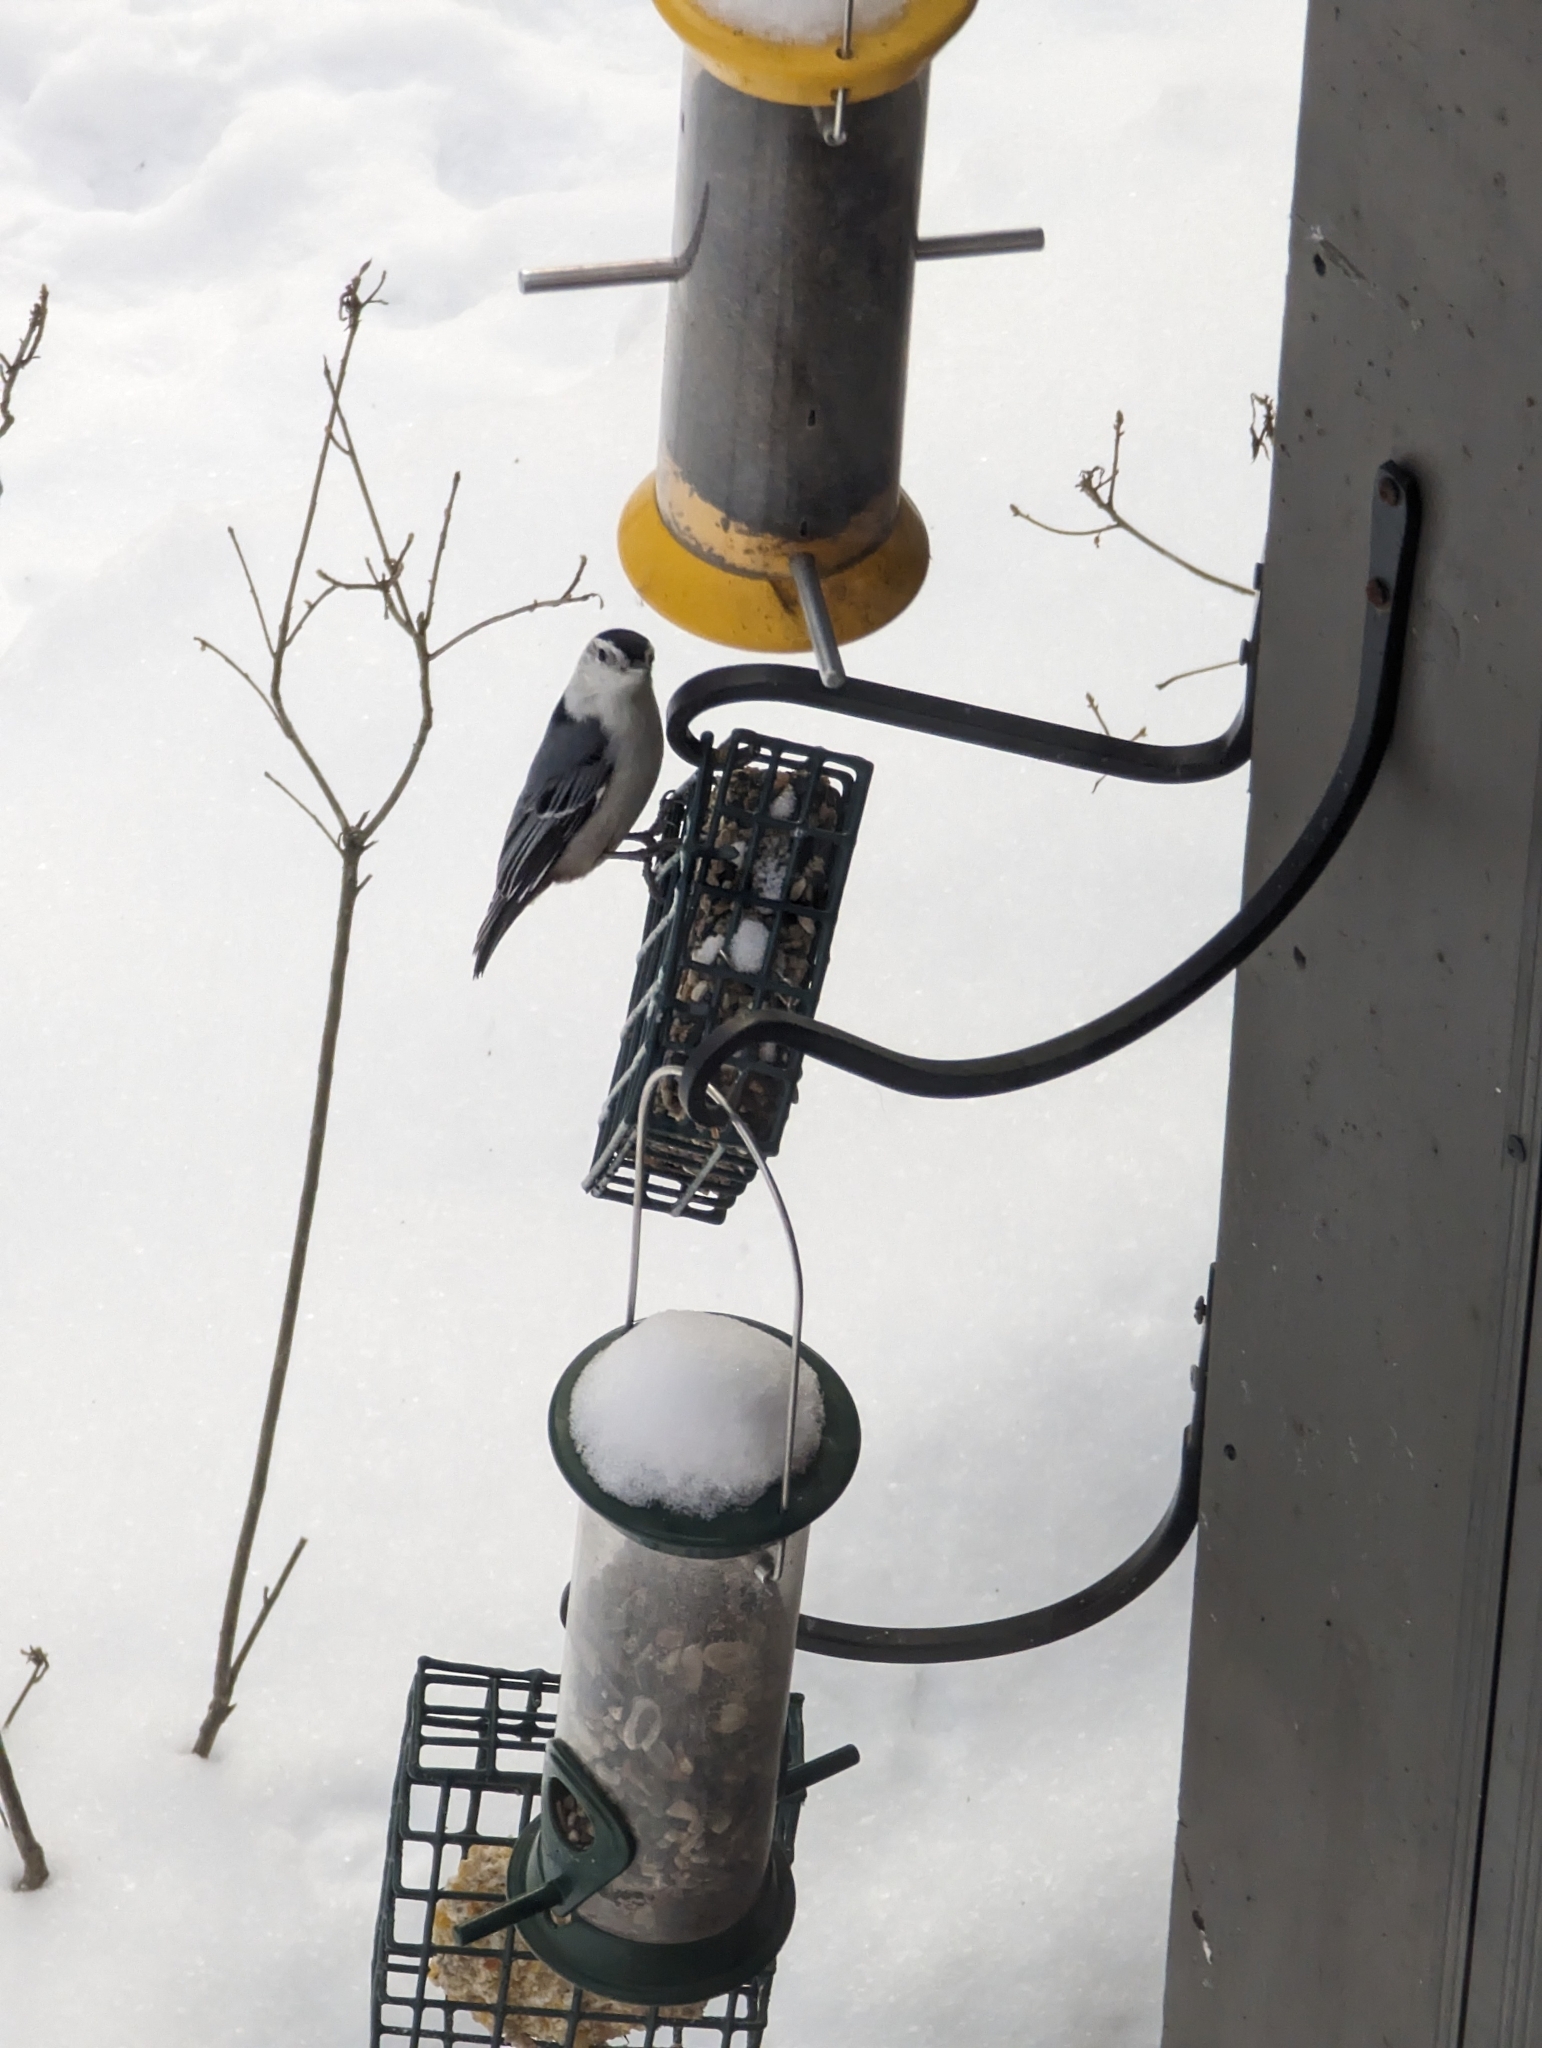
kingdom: Animalia
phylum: Chordata
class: Aves
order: Passeriformes
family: Sittidae
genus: Sitta
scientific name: Sitta carolinensis
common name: White-breasted nuthatch
